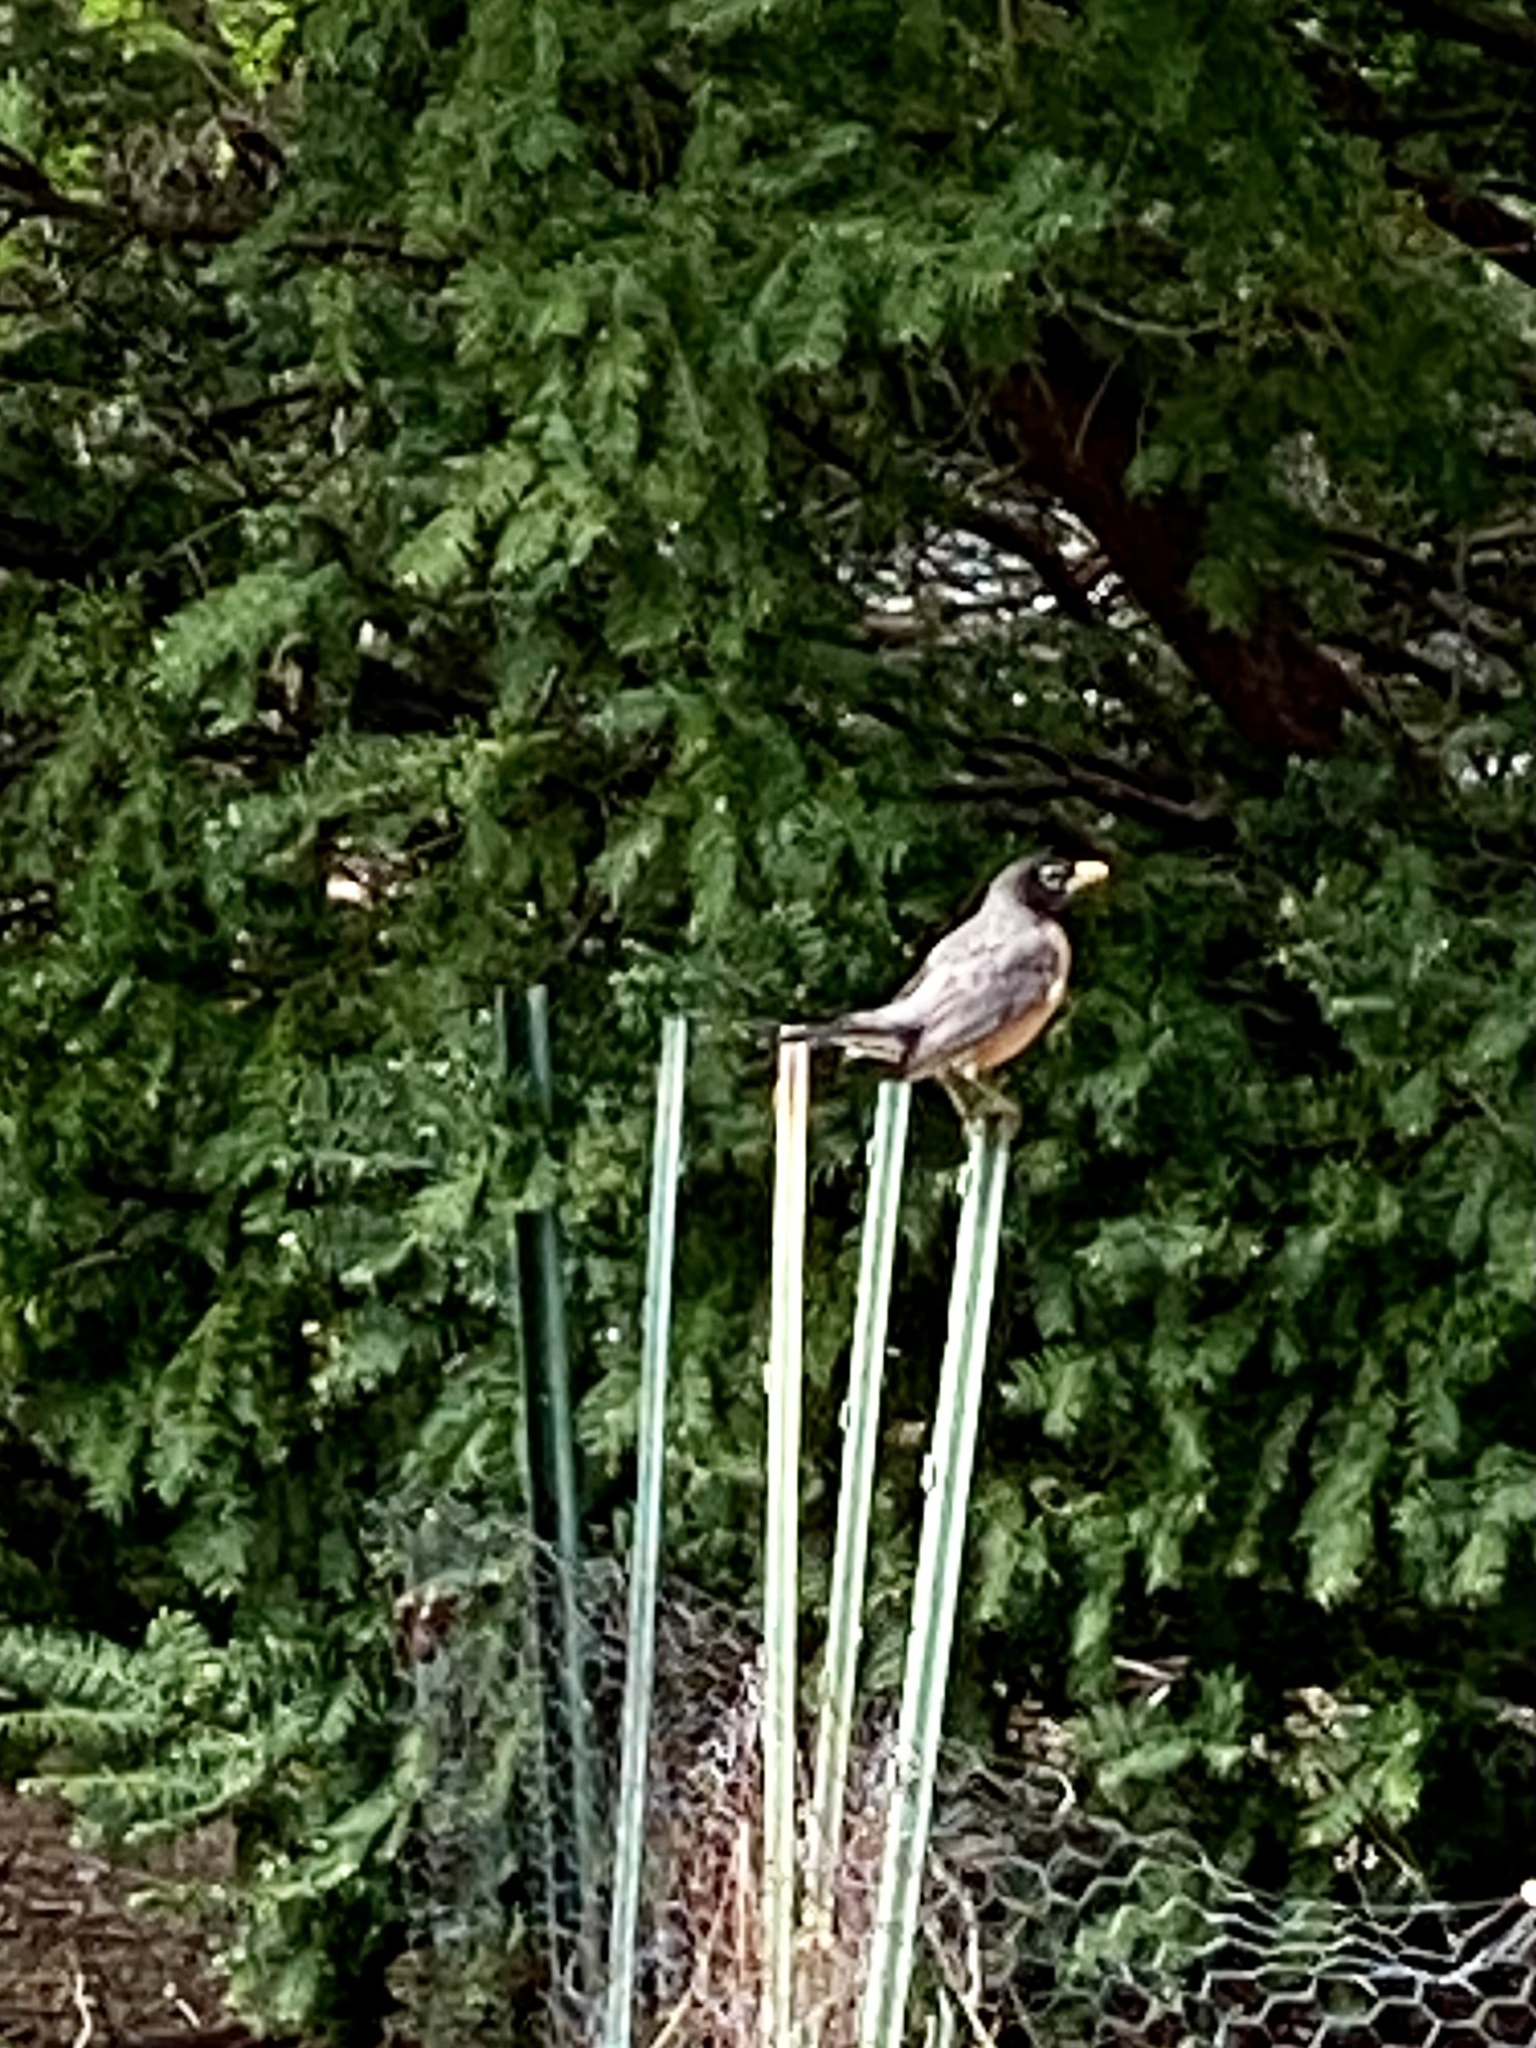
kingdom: Animalia
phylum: Chordata
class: Aves
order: Passeriformes
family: Turdidae
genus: Turdus
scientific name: Turdus migratorius
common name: American robin
